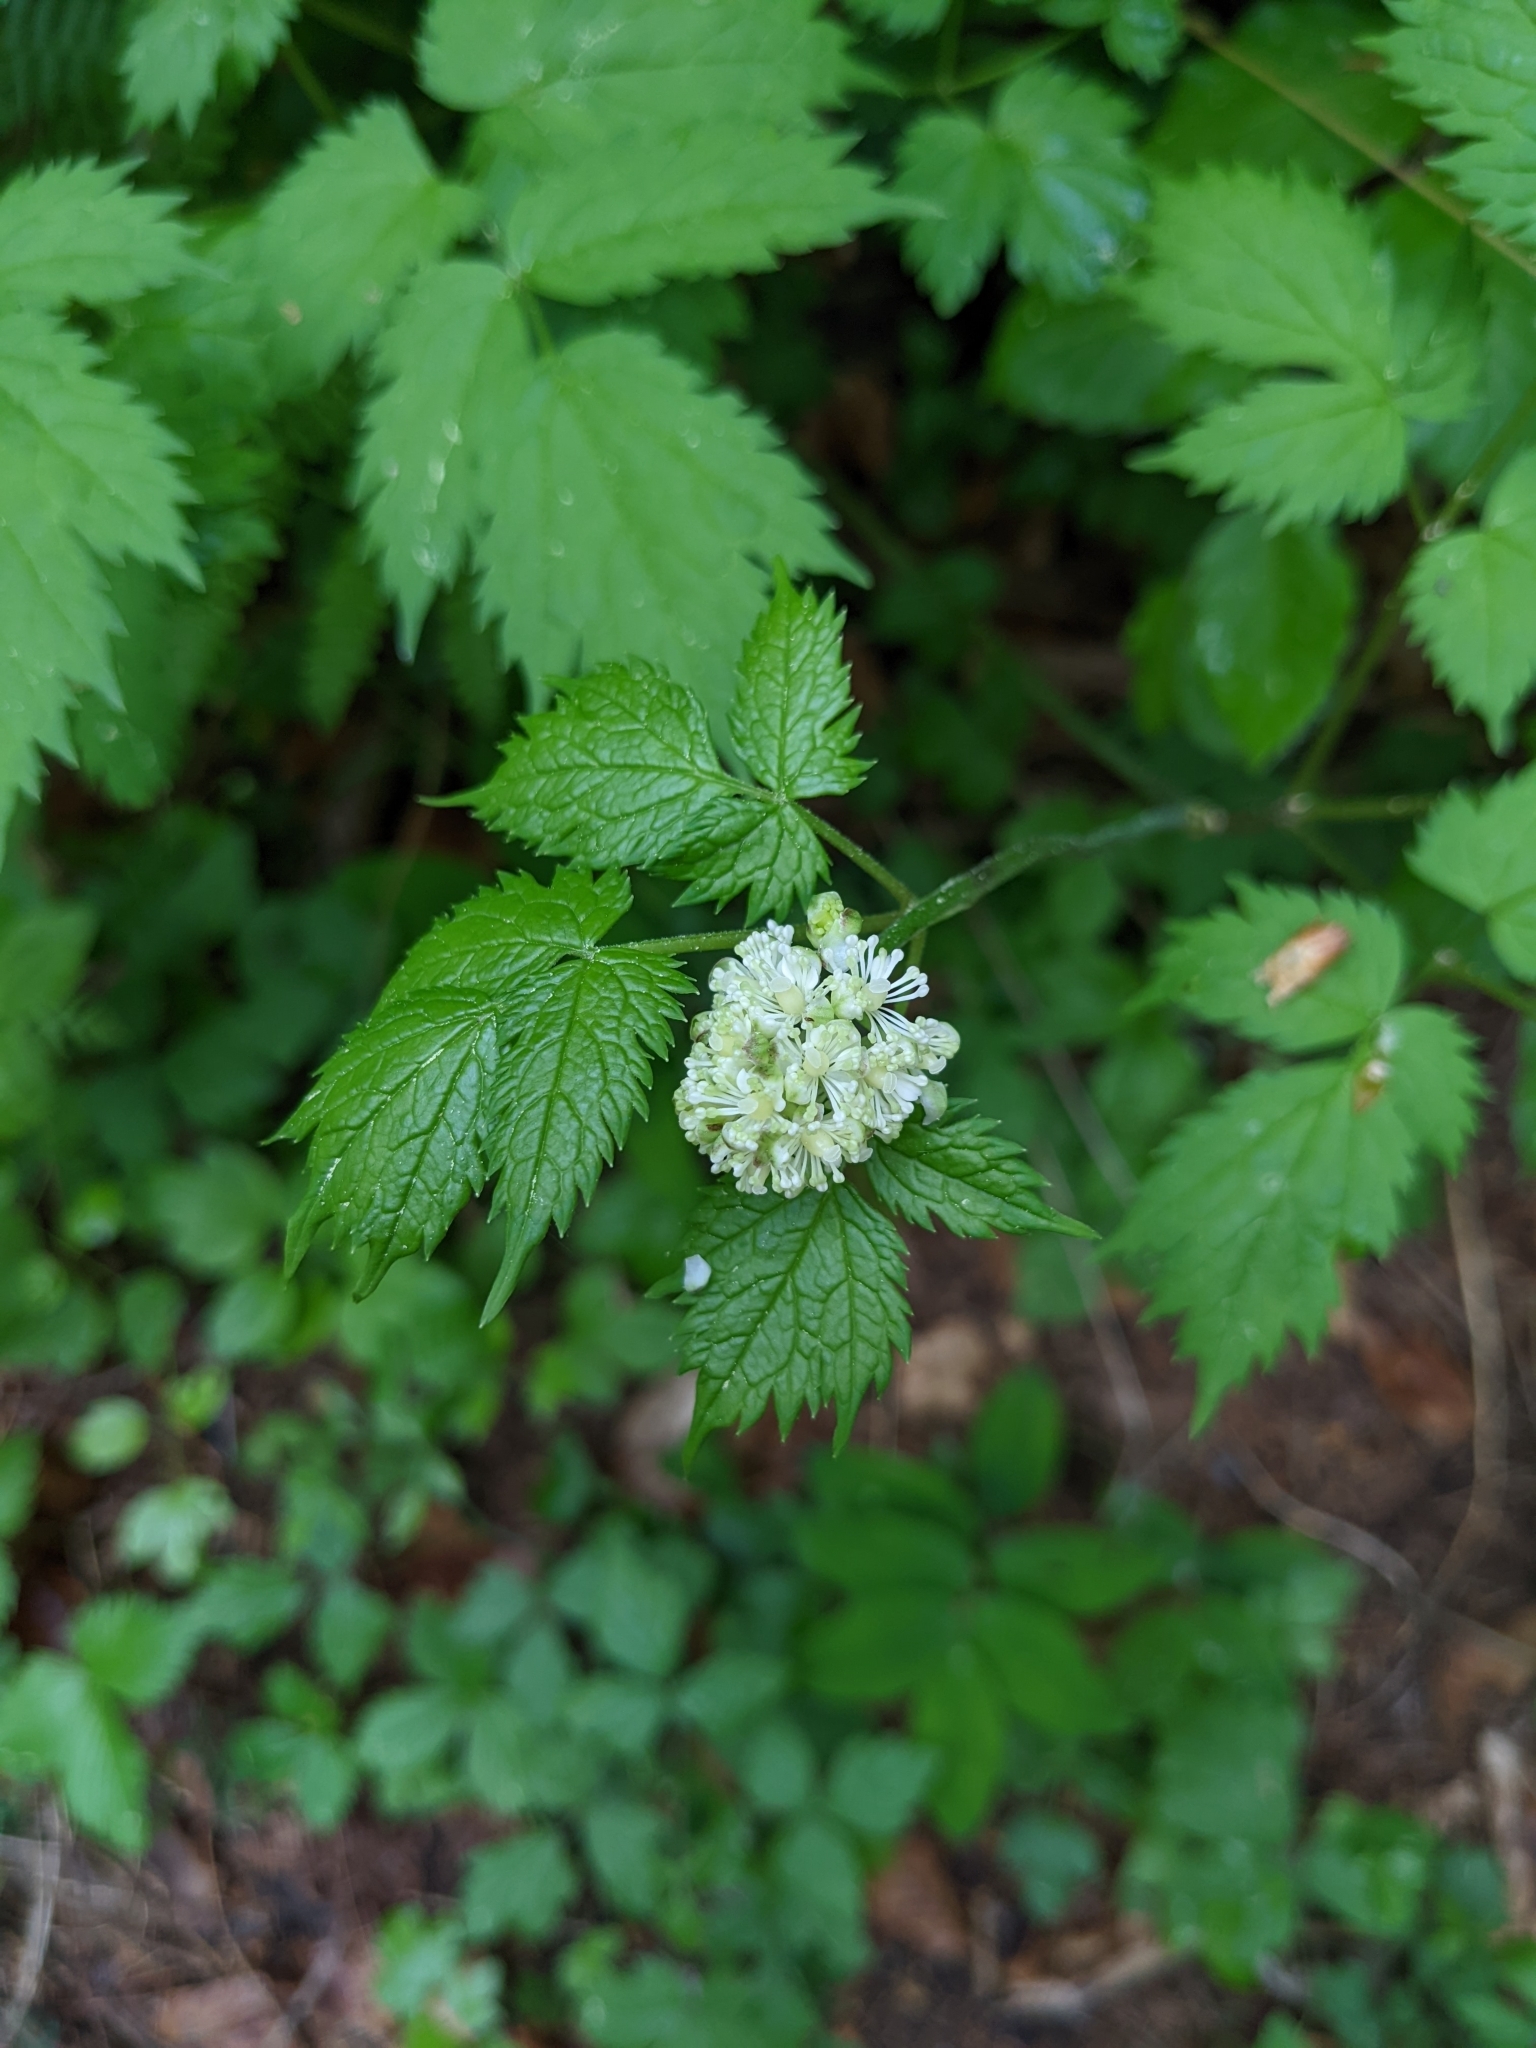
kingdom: Plantae
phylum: Tracheophyta
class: Magnoliopsida
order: Ranunculales
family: Ranunculaceae
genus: Actaea
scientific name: Actaea spicata
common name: Baneberry
